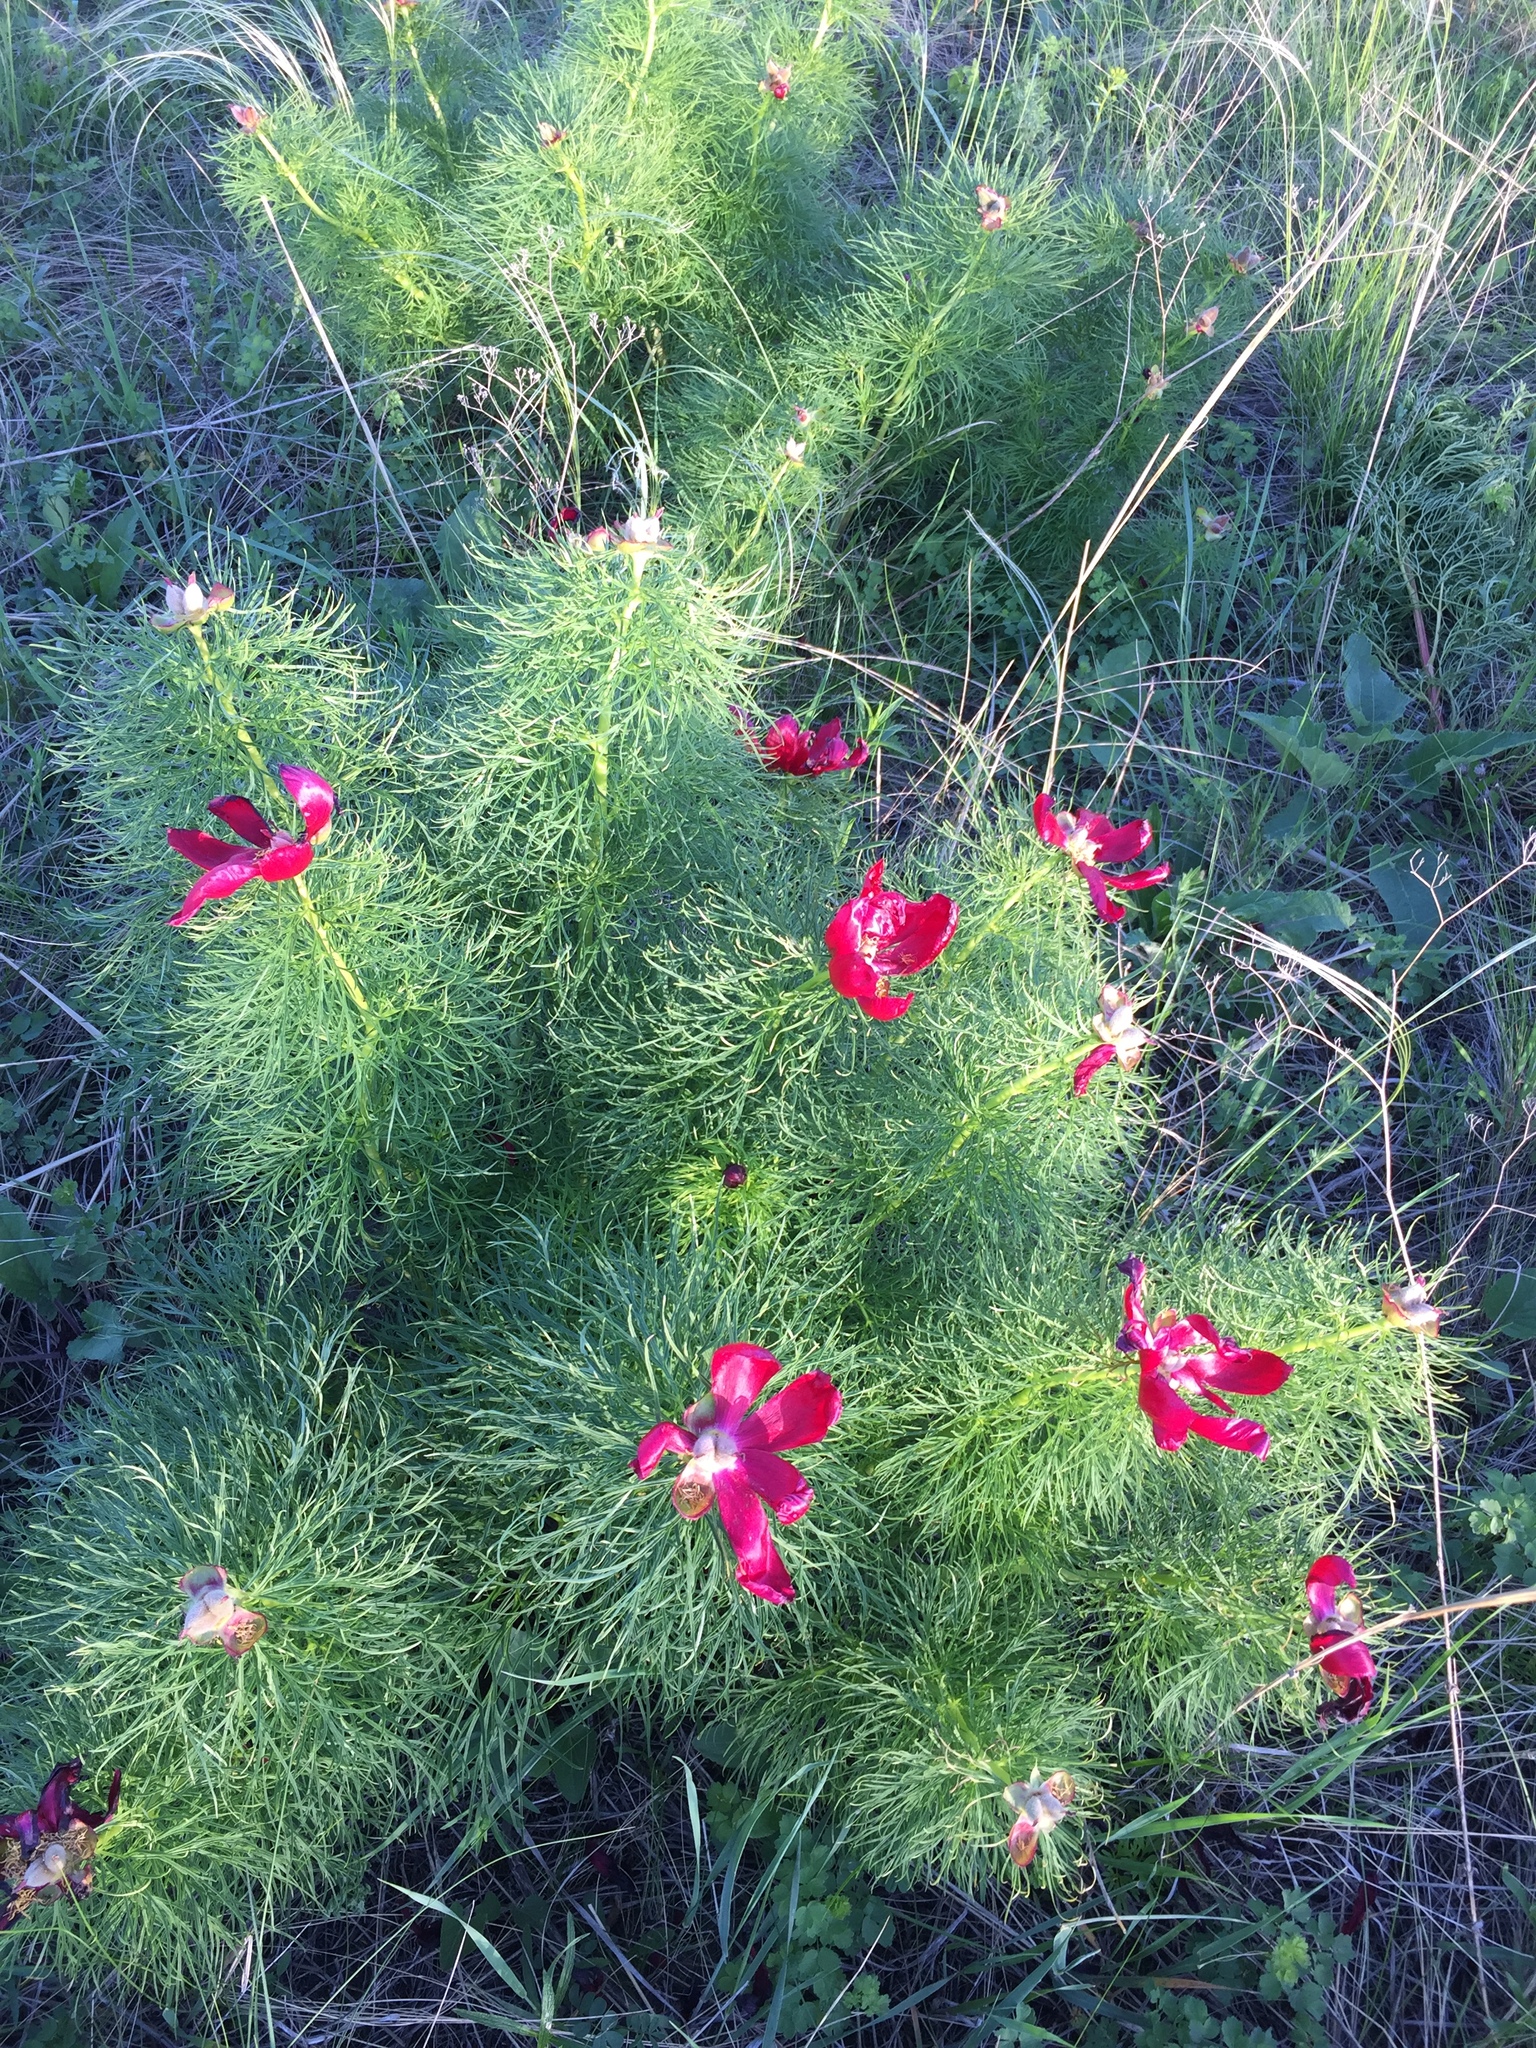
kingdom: Plantae
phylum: Tracheophyta
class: Magnoliopsida
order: Saxifragales
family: Paeoniaceae
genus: Paeonia
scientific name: Paeonia tenuifolia
